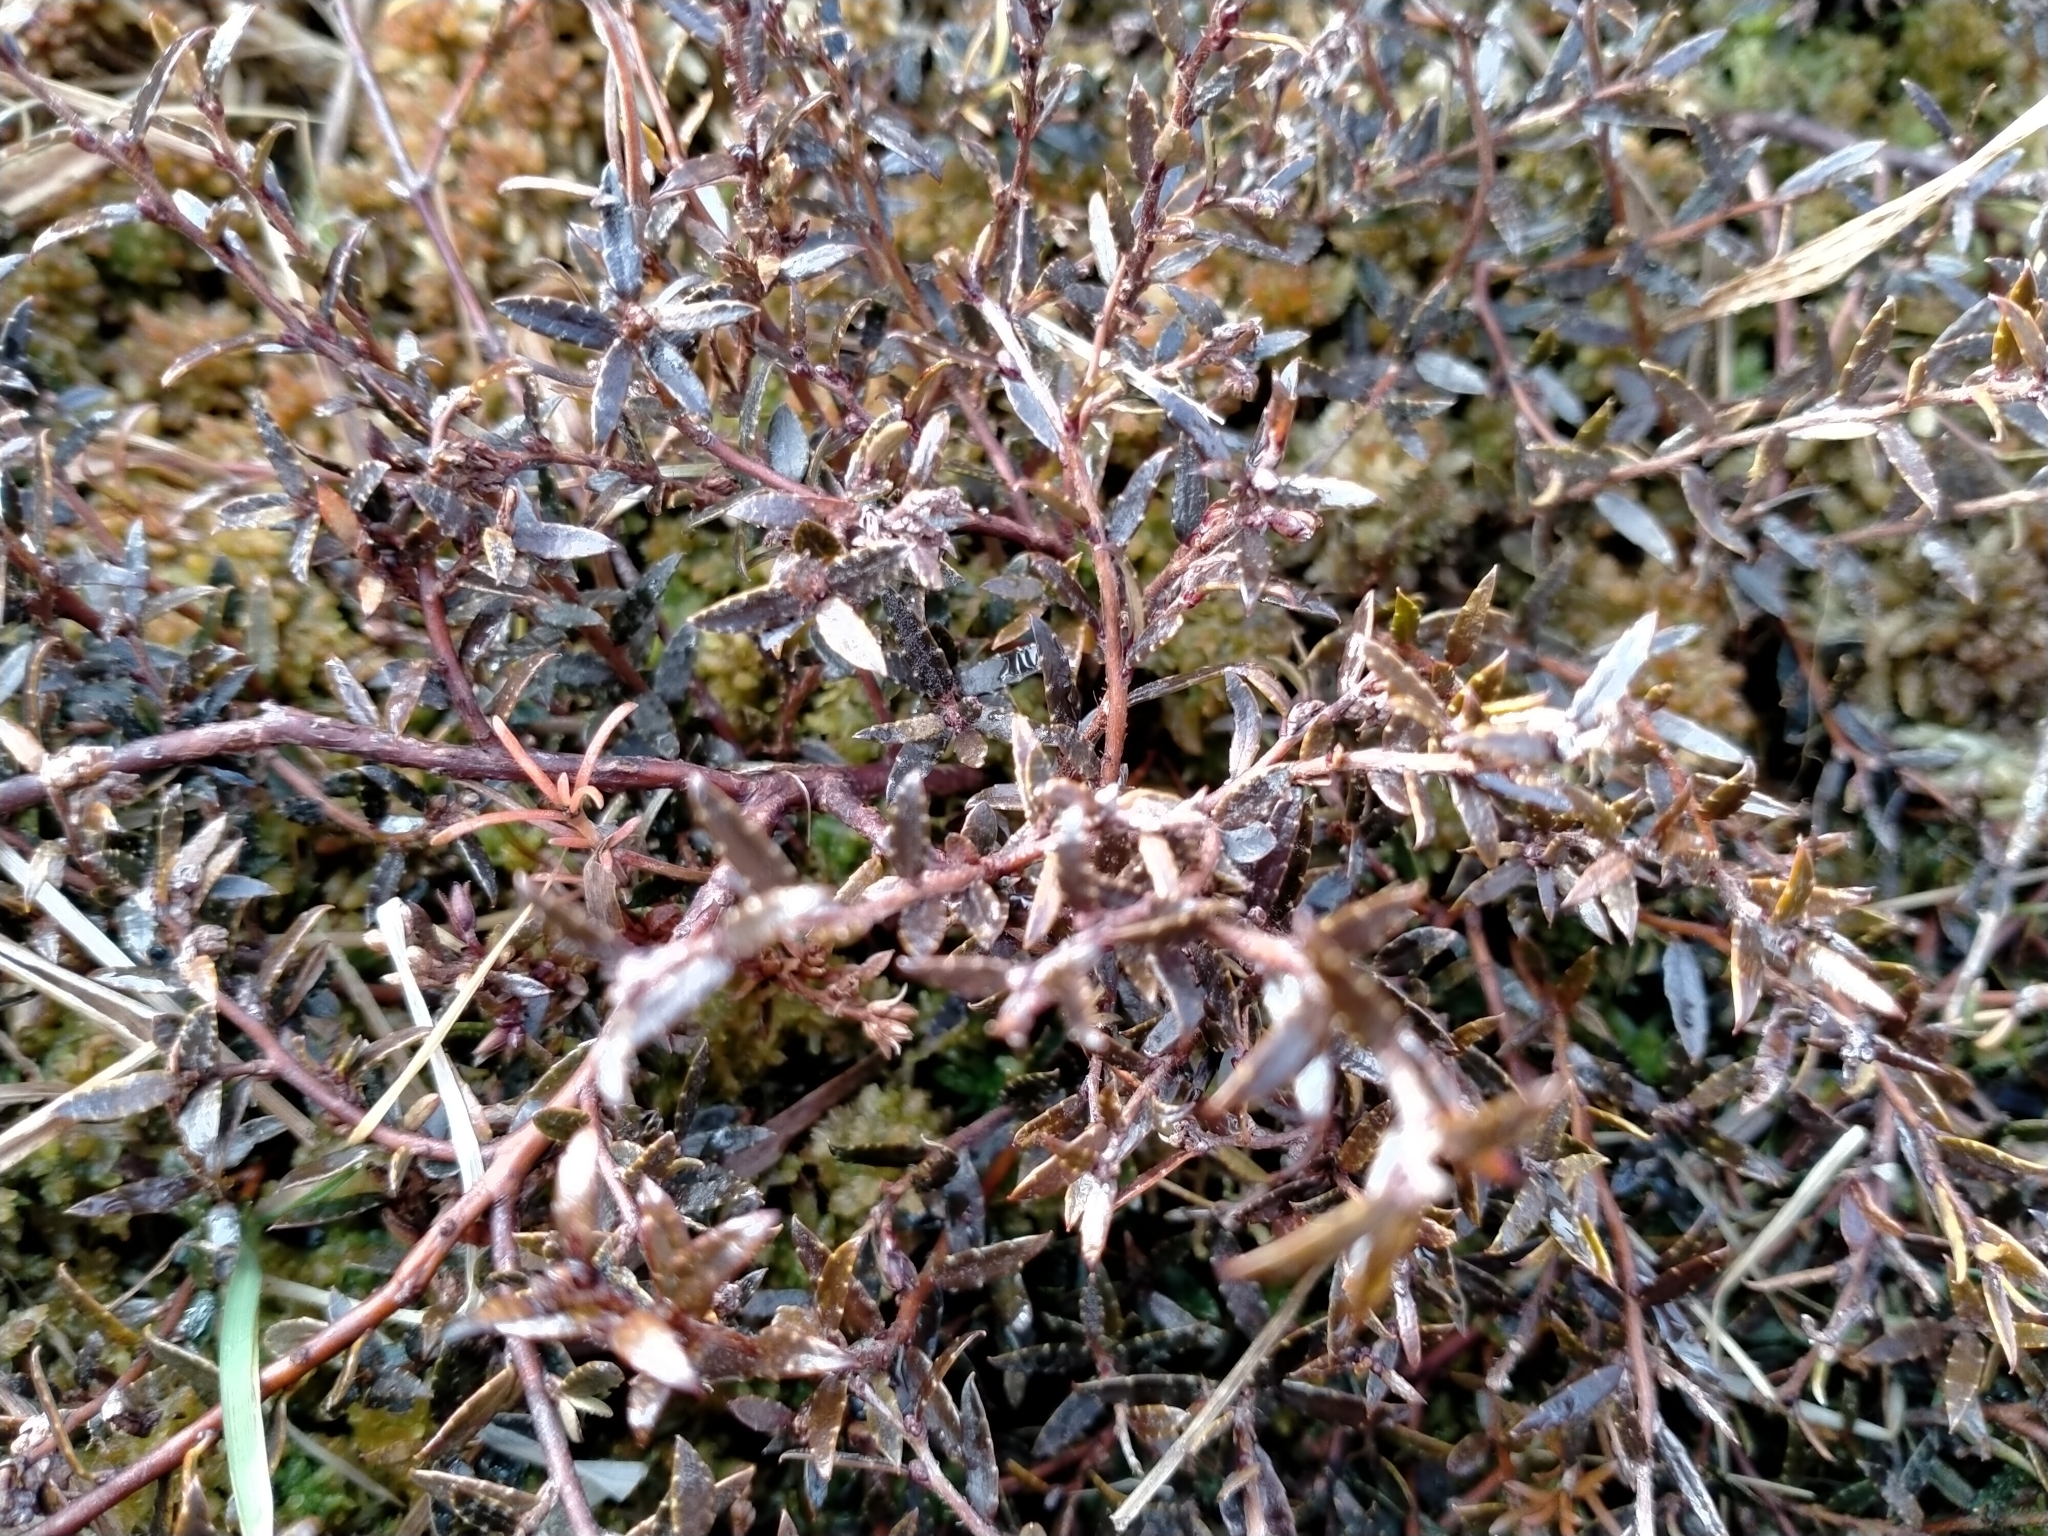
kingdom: Plantae
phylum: Tracheophyta
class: Magnoliopsida
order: Ericales
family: Ericaceae
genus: Gaultheria
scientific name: Gaultheria macrostigma
